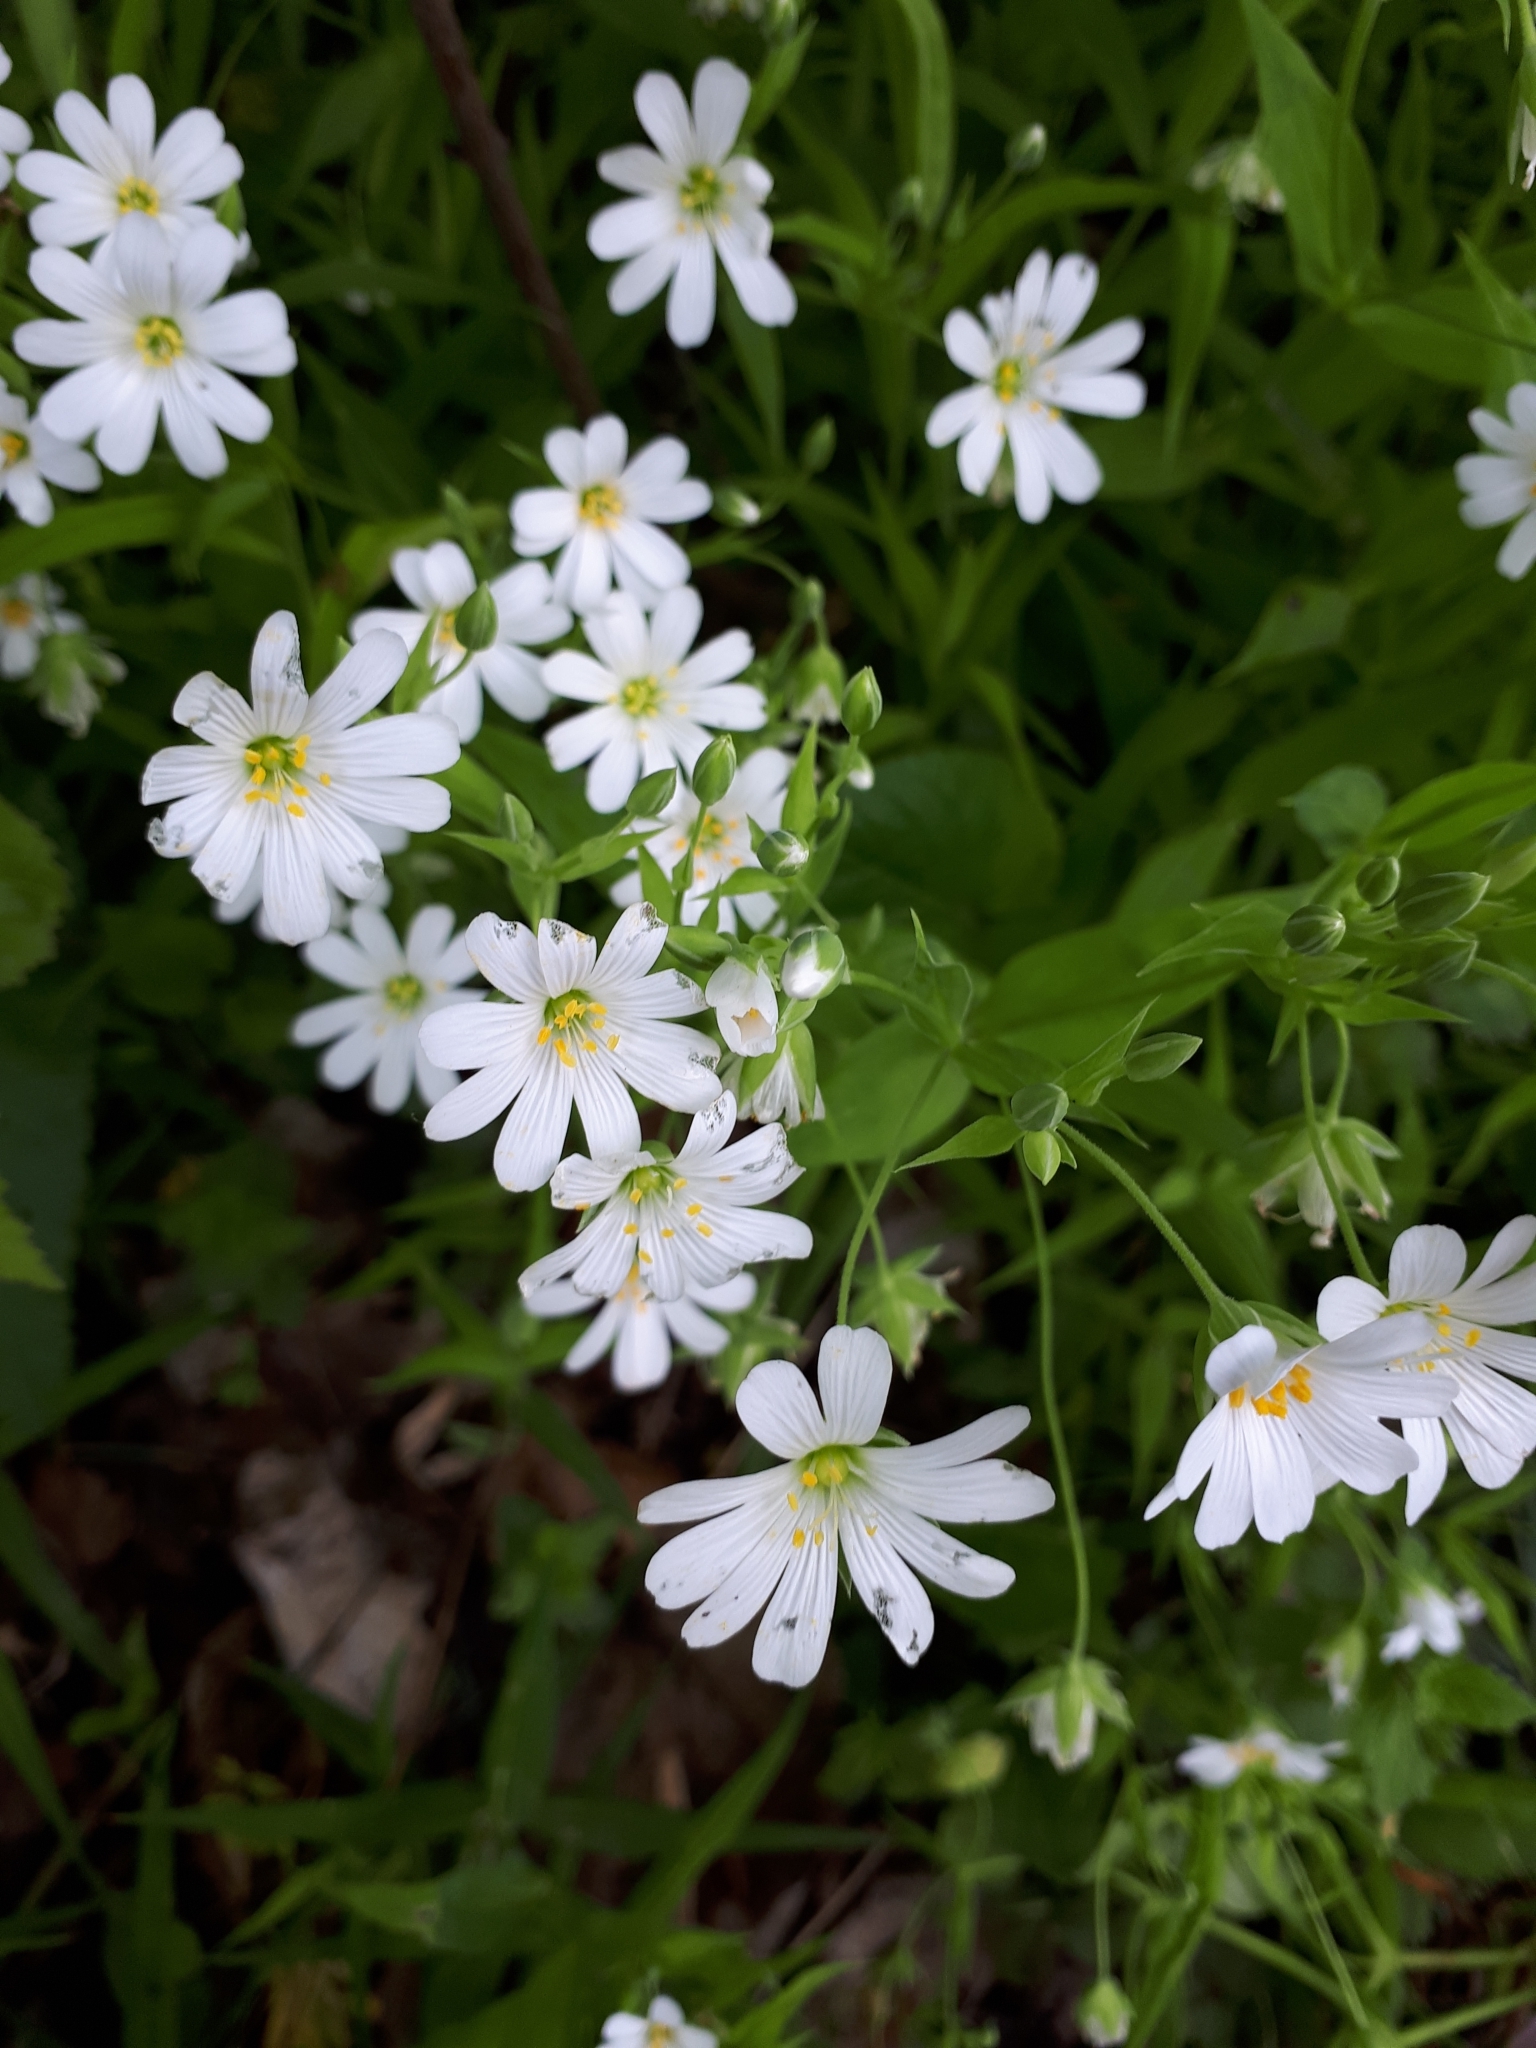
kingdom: Plantae
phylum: Tracheophyta
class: Magnoliopsida
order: Caryophyllales
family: Caryophyllaceae
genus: Rabelera
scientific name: Rabelera holostea
